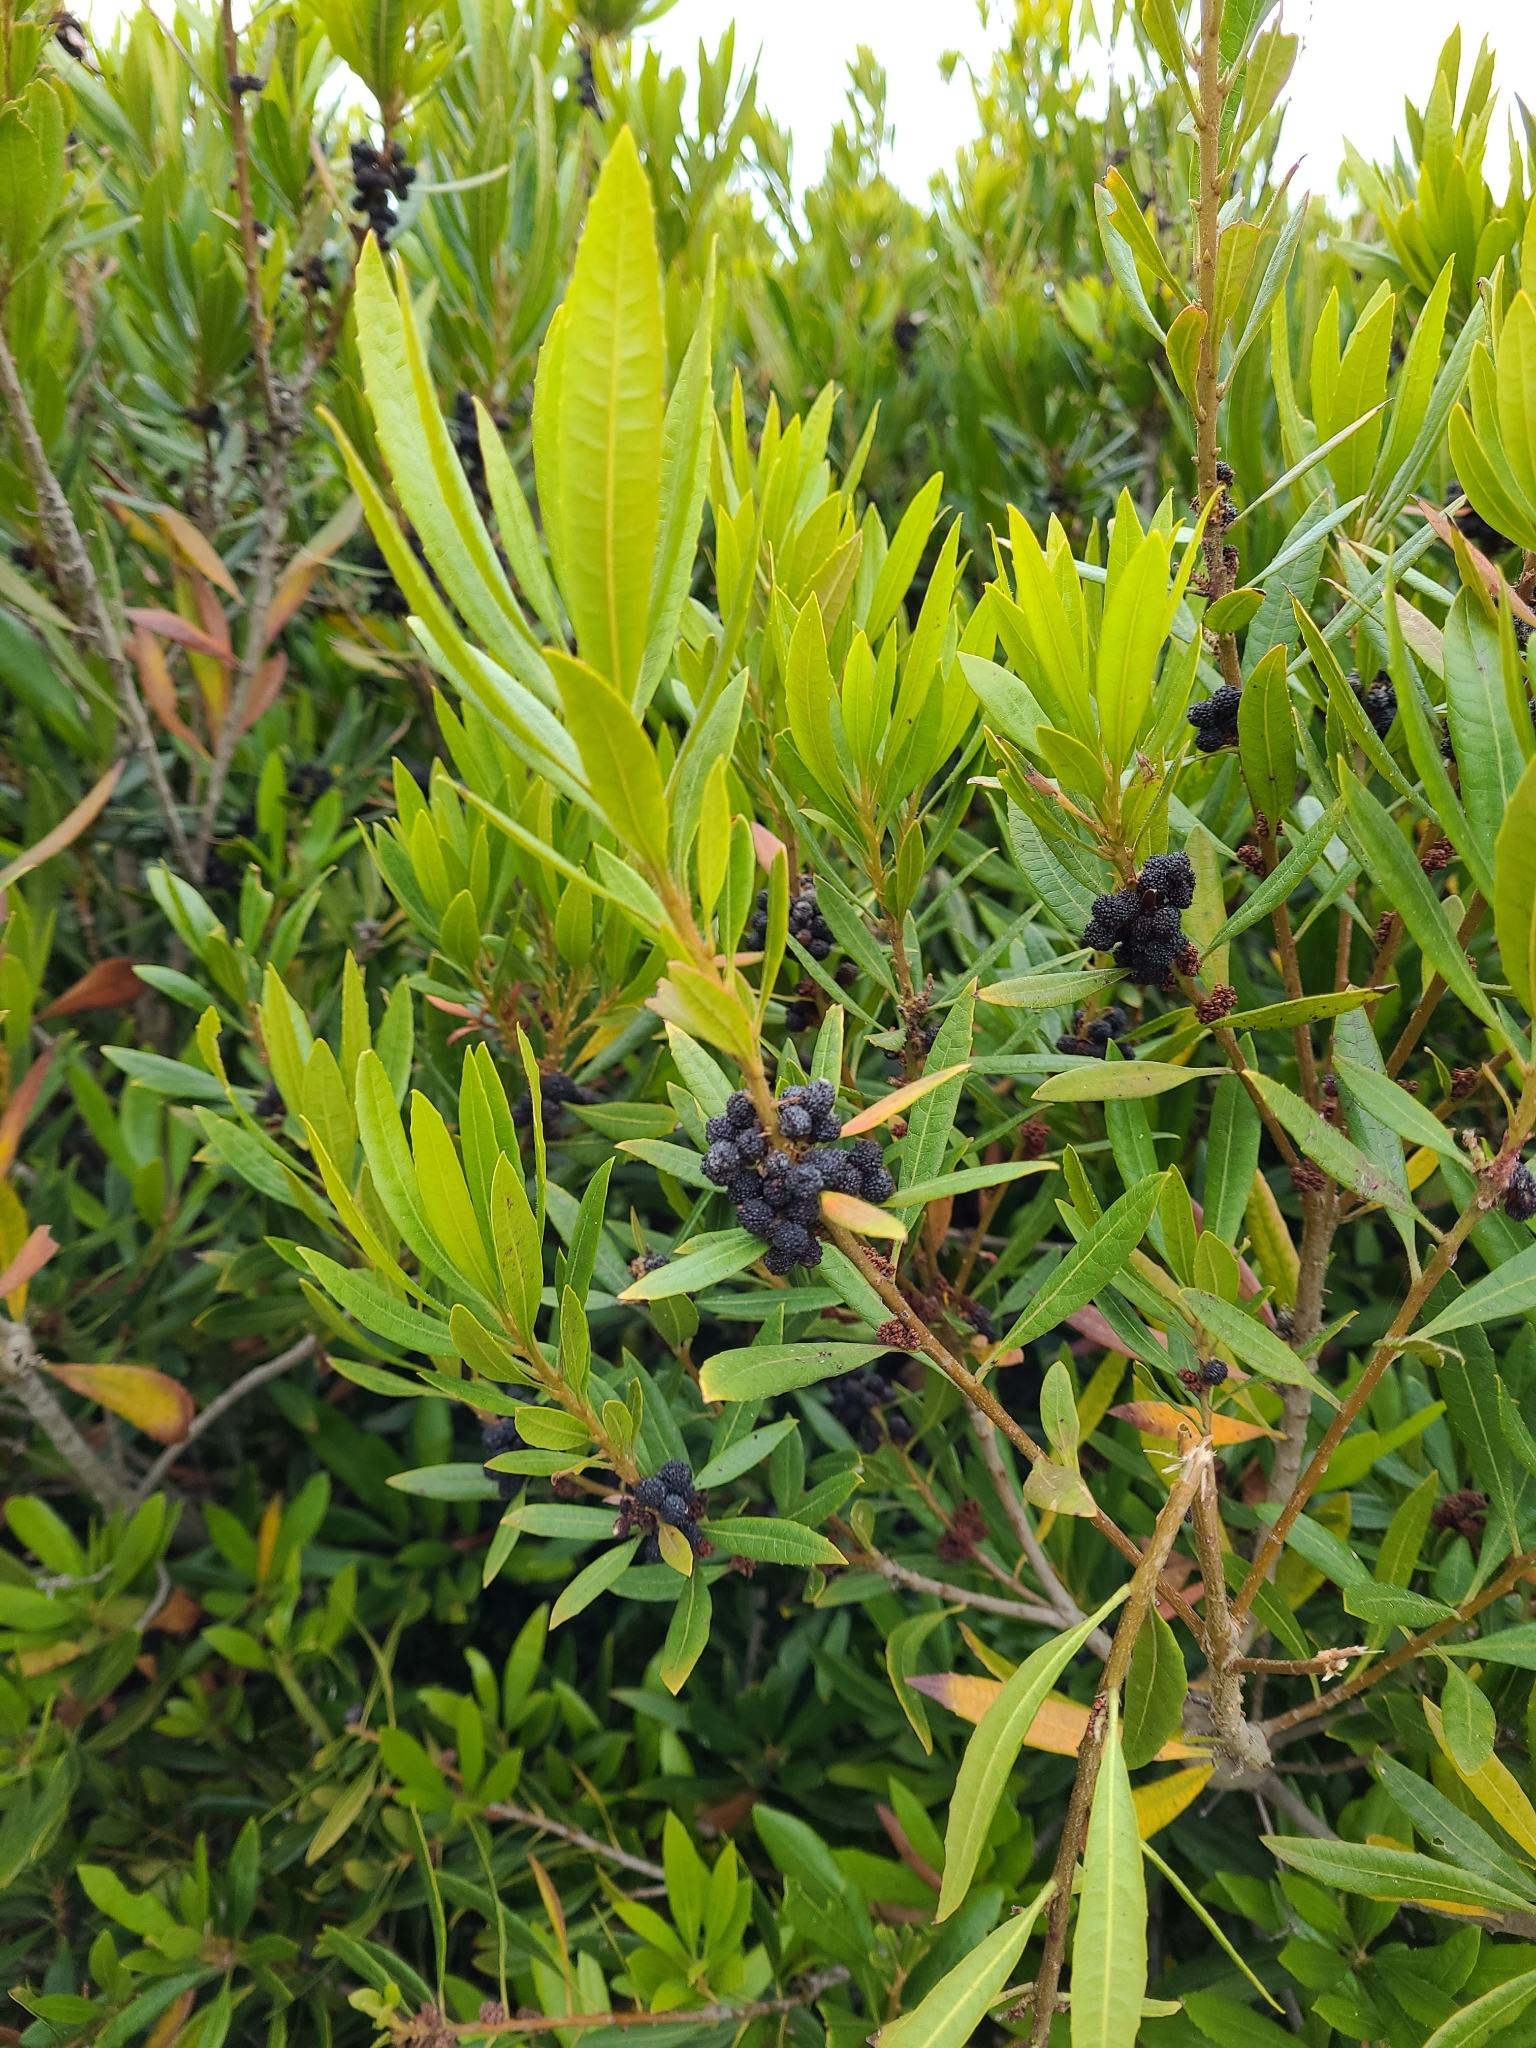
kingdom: Plantae
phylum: Tracheophyta
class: Magnoliopsida
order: Fagales
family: Myricaceae
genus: Morella
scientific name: Morella californica
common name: California wax-myrtle
